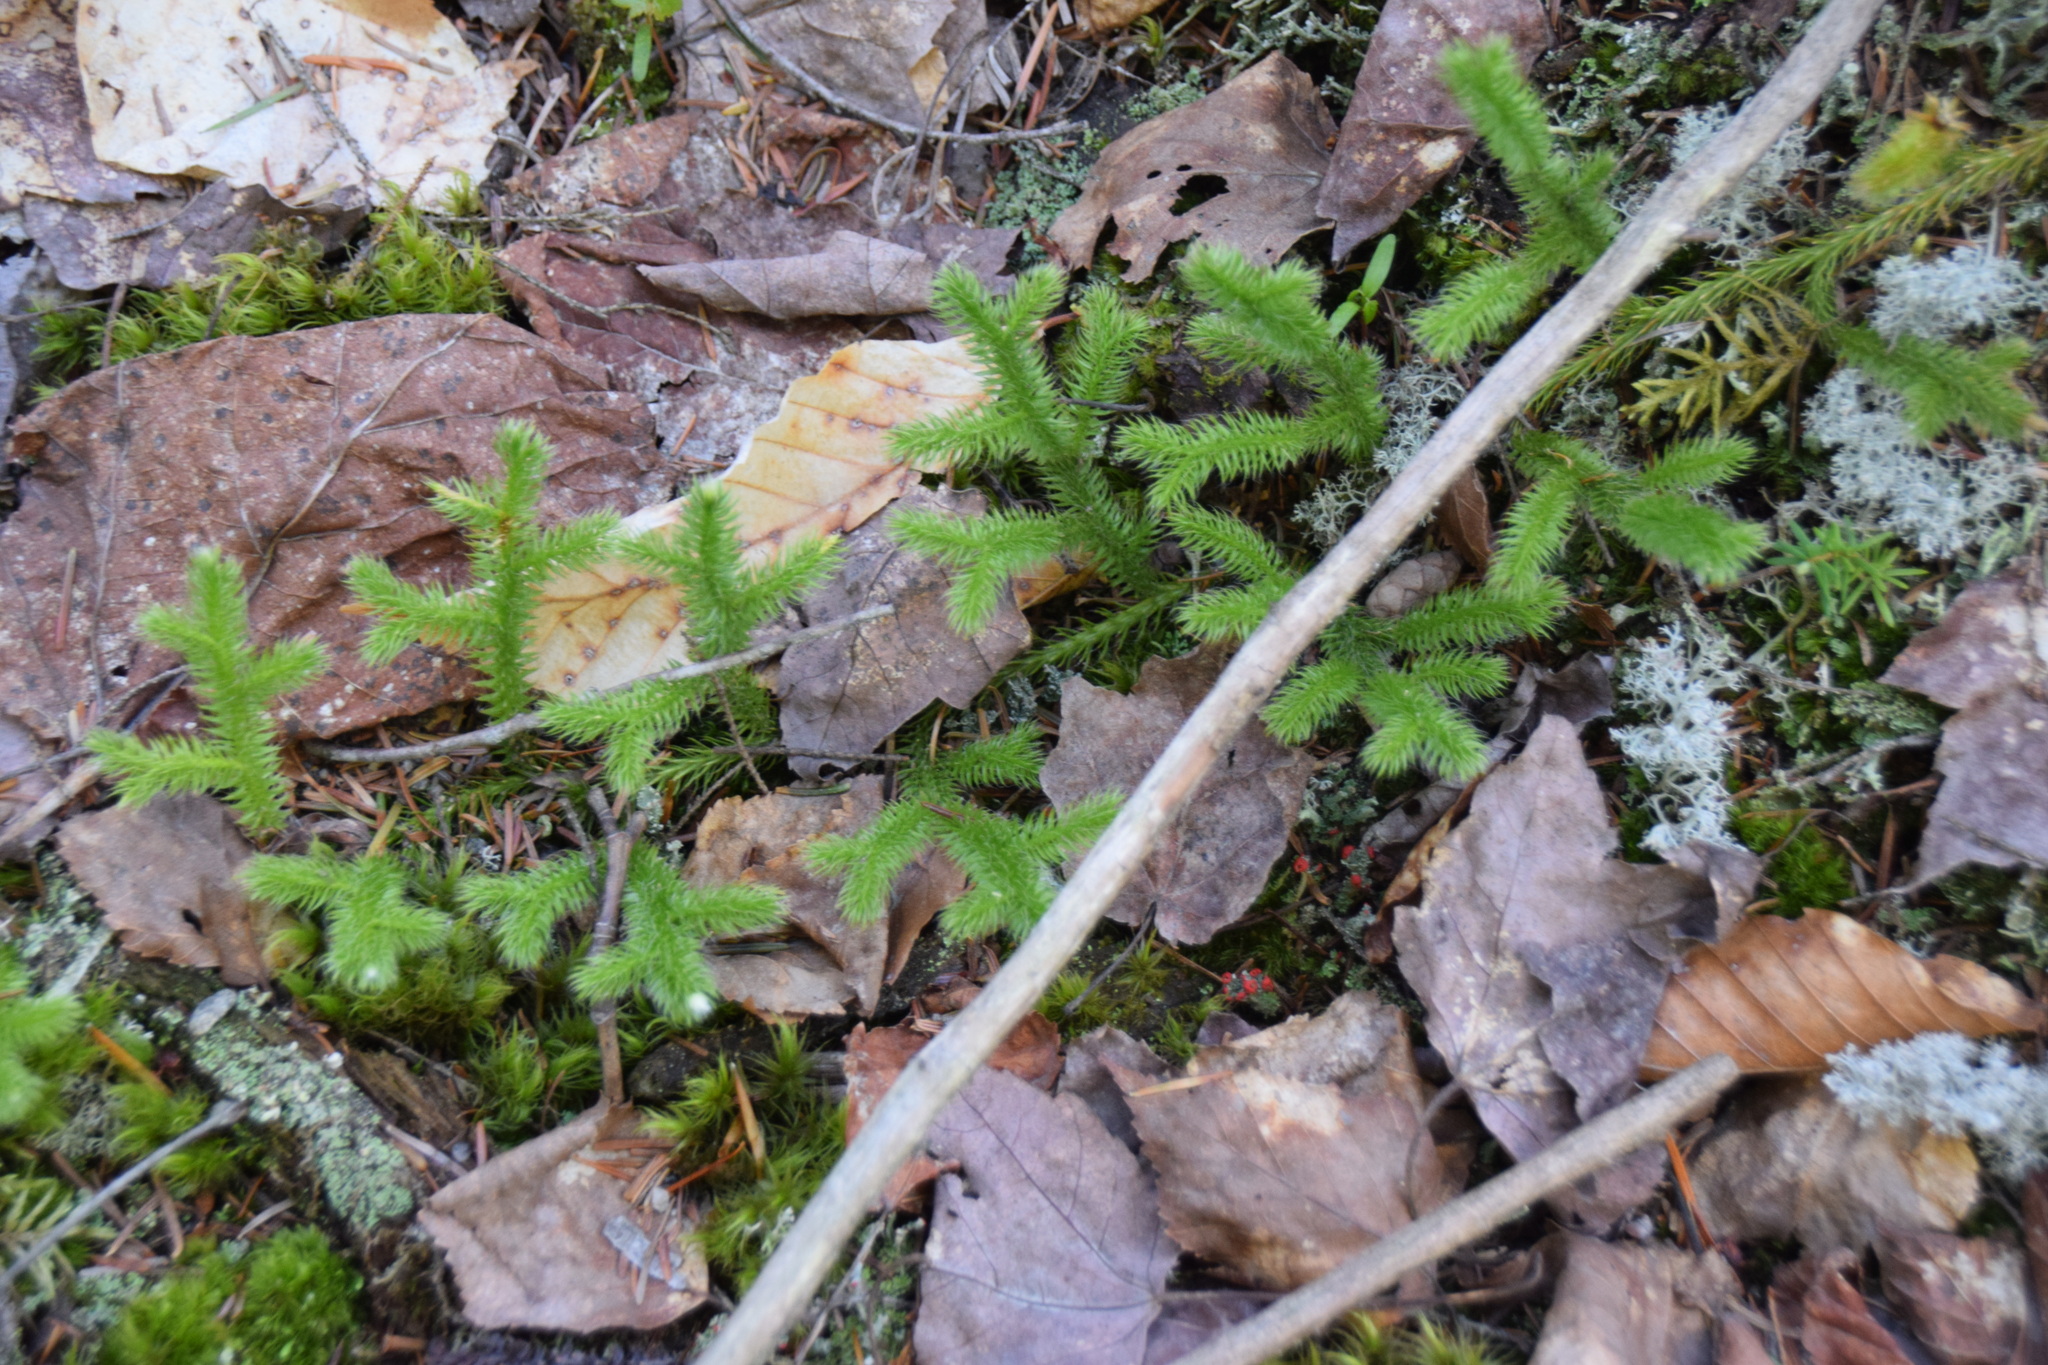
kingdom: Plantae
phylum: Tracheophyta
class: Lycopodiopsida
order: Lycopodiales
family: Lycopodiaceae
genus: Lycopodium
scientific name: Lycopodium clavatum
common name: Stag's-horn clubmoss
